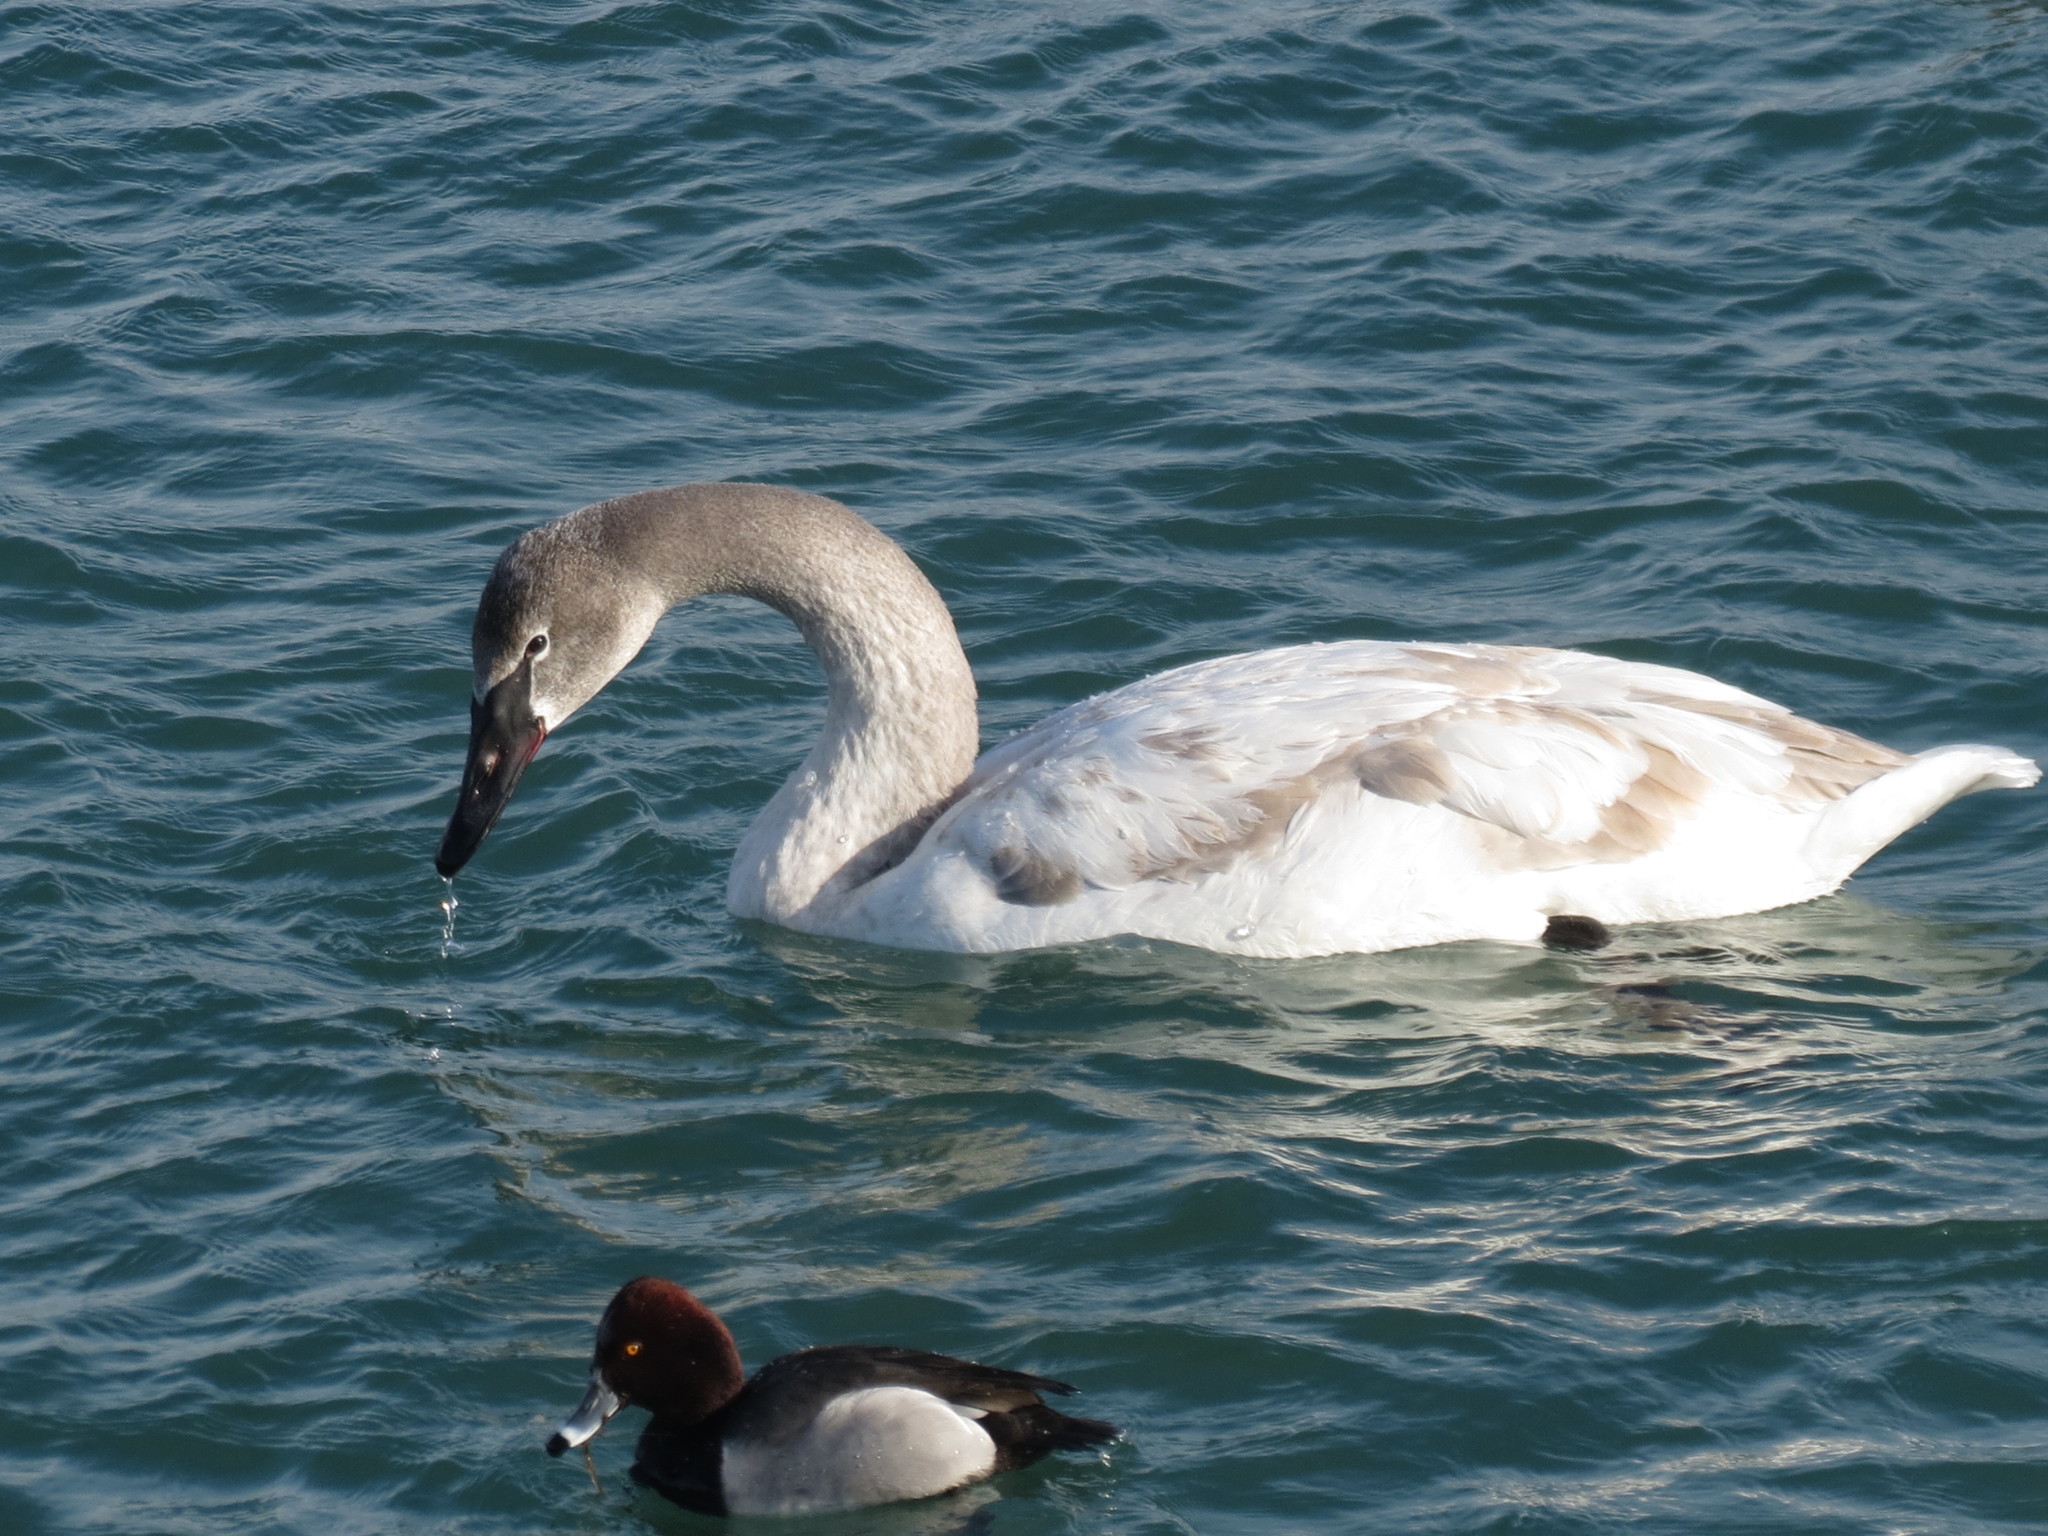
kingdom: Animalia
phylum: Chordata
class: Aves
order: Anseriformes
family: Anatidae
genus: Cygnus
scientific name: Cygnus buccinator
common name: Trumpeter swan
